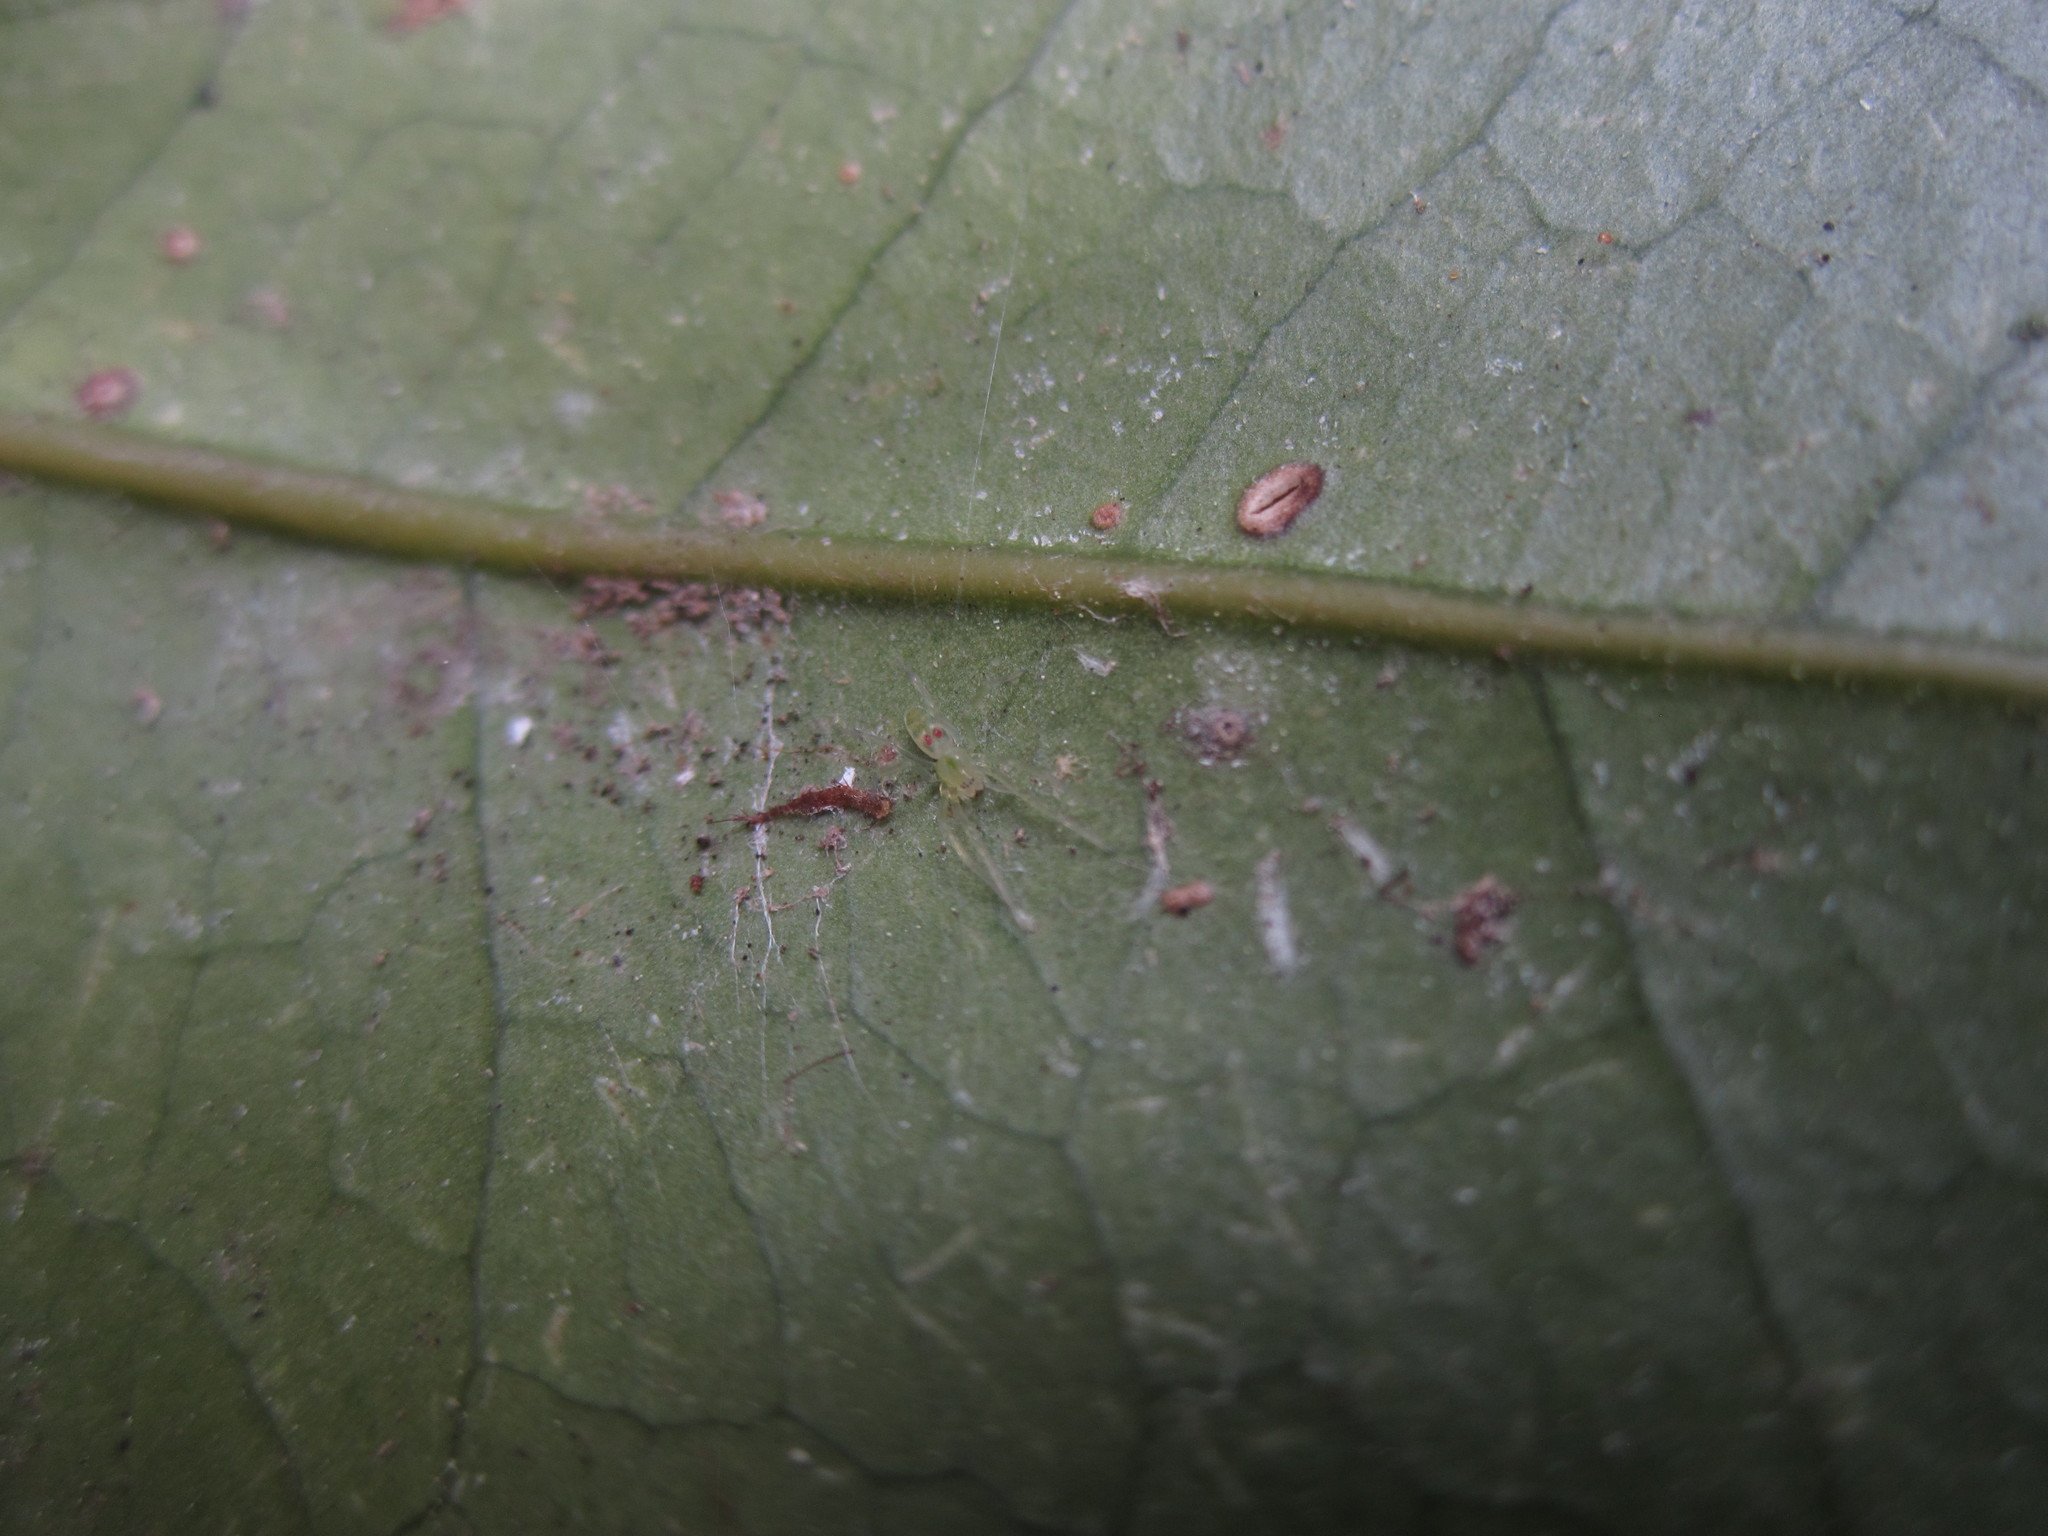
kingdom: Animalia
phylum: Arthropoda
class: Arachnida
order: Araneae
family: Dictynidae
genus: Paradictyna
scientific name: Paradictyna rufoflava
